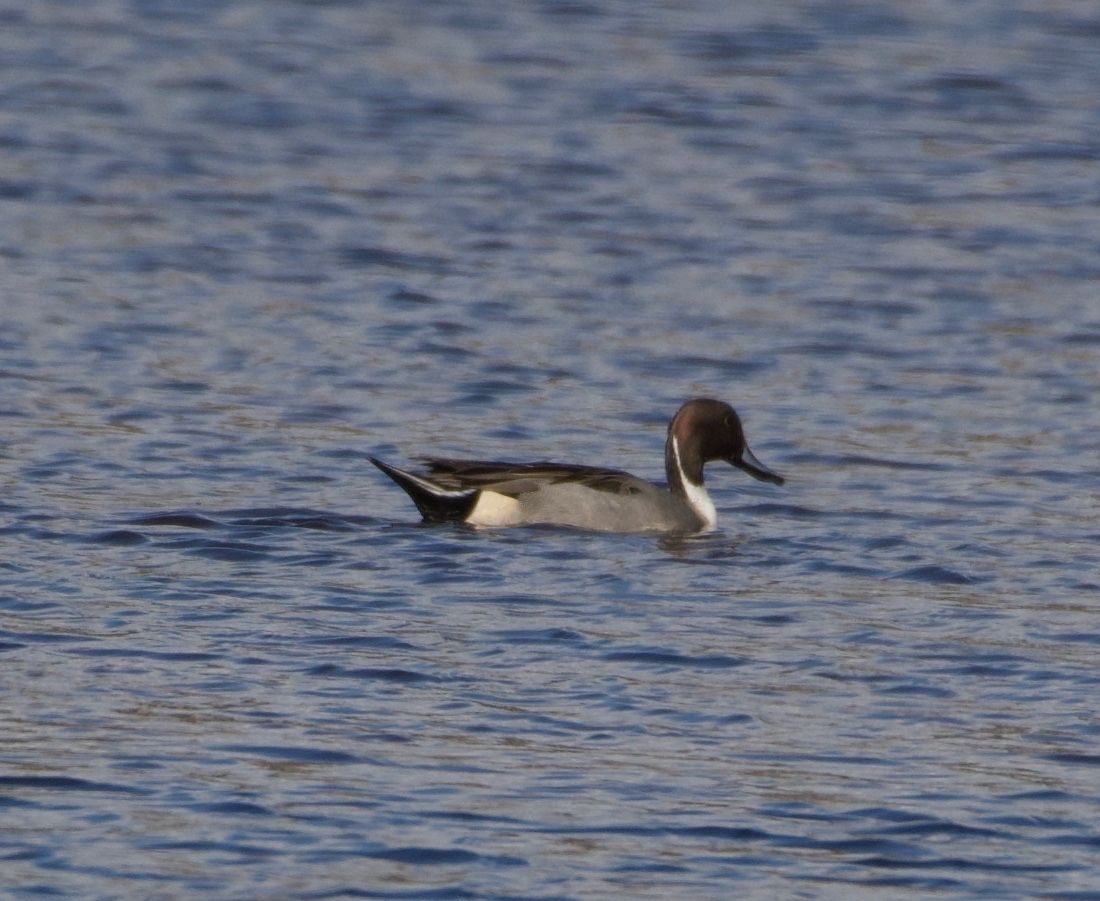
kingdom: Animalia
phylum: Chordata
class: Aves
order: Anseriformes
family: Anatidae
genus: Anas
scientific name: Anas acuta
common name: Northern pintail
